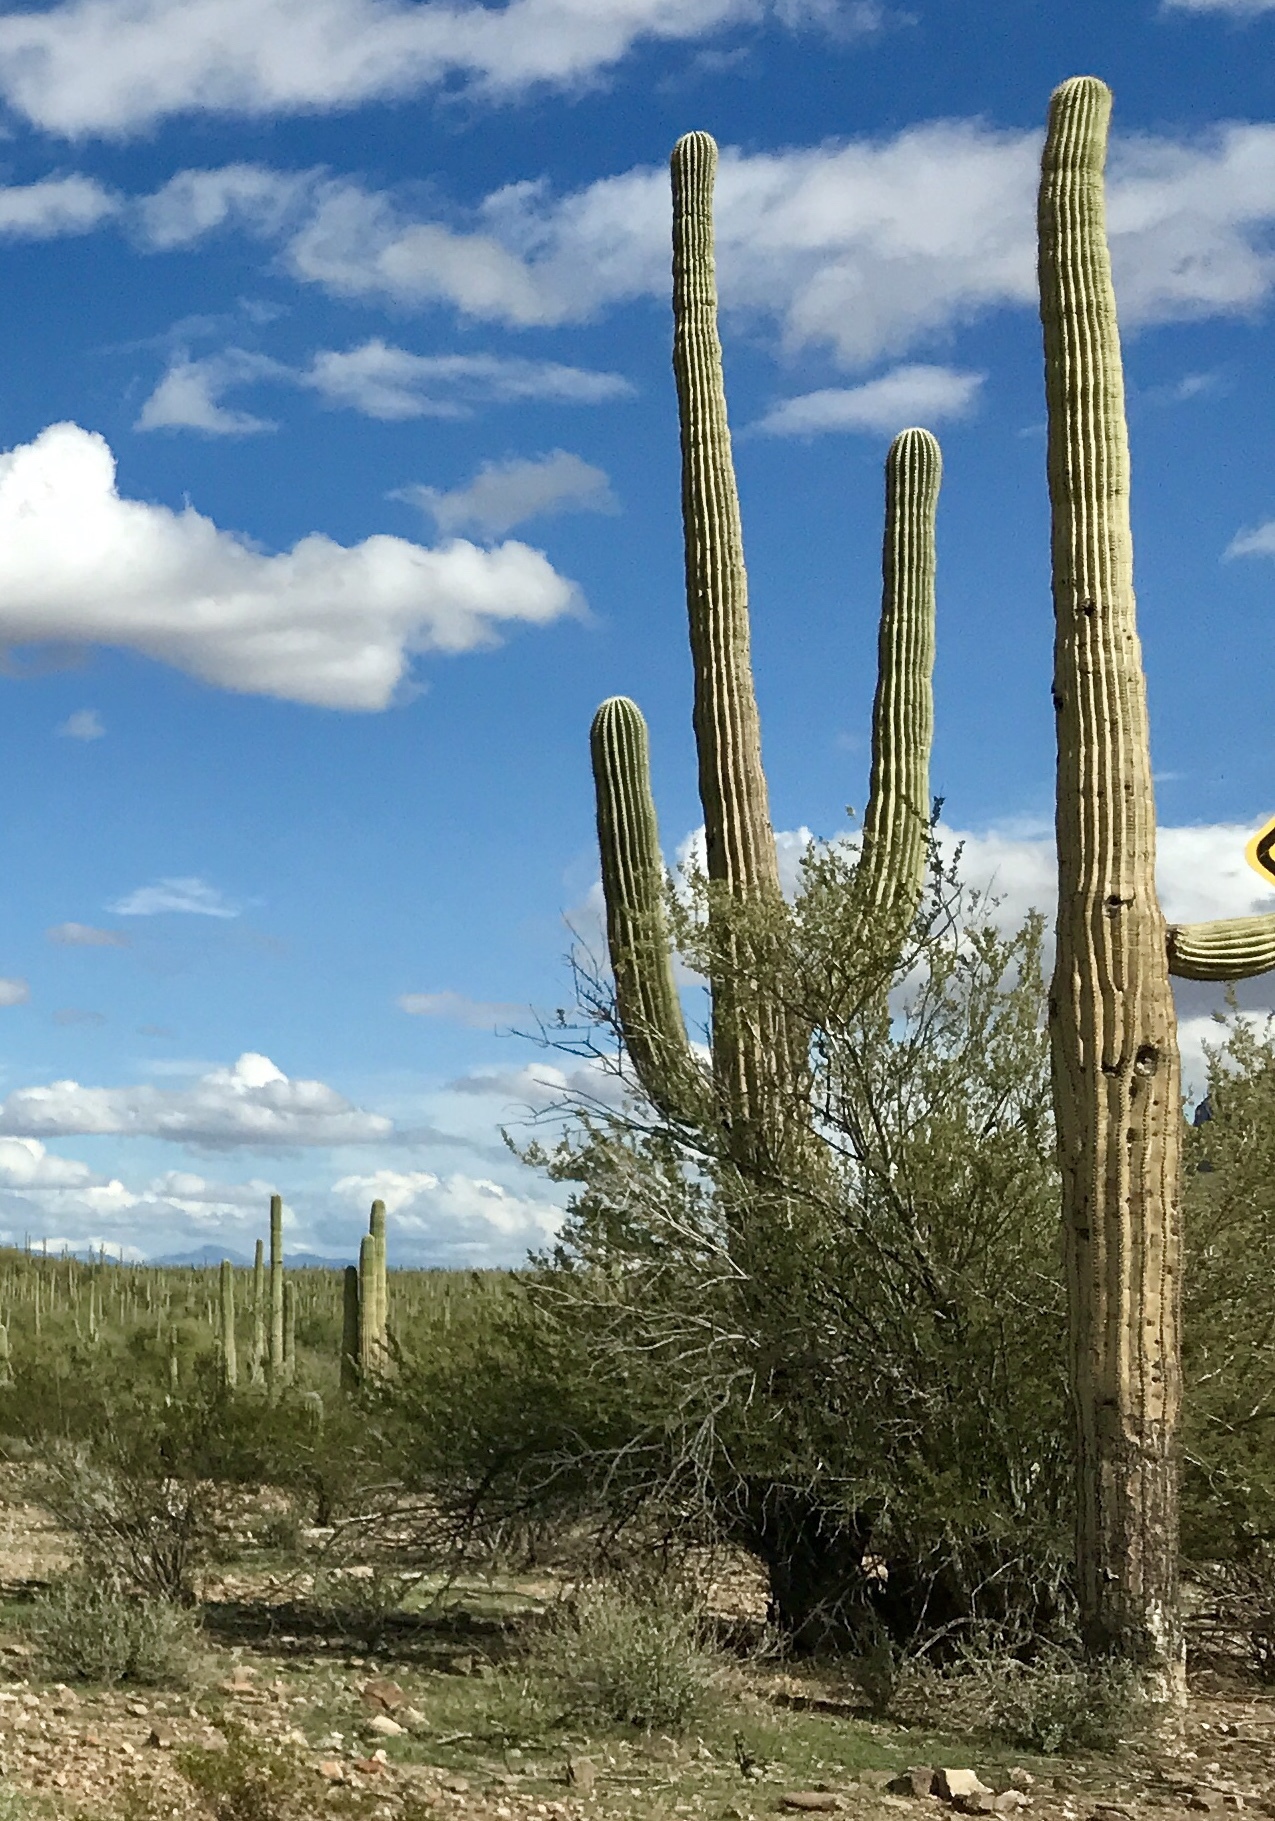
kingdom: Plantae
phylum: Tracheophyta
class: Magnoliopsida
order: Caryophyllales
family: Cactaceae
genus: Carnegiea
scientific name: Carnegiea gigantea
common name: Saguaro
